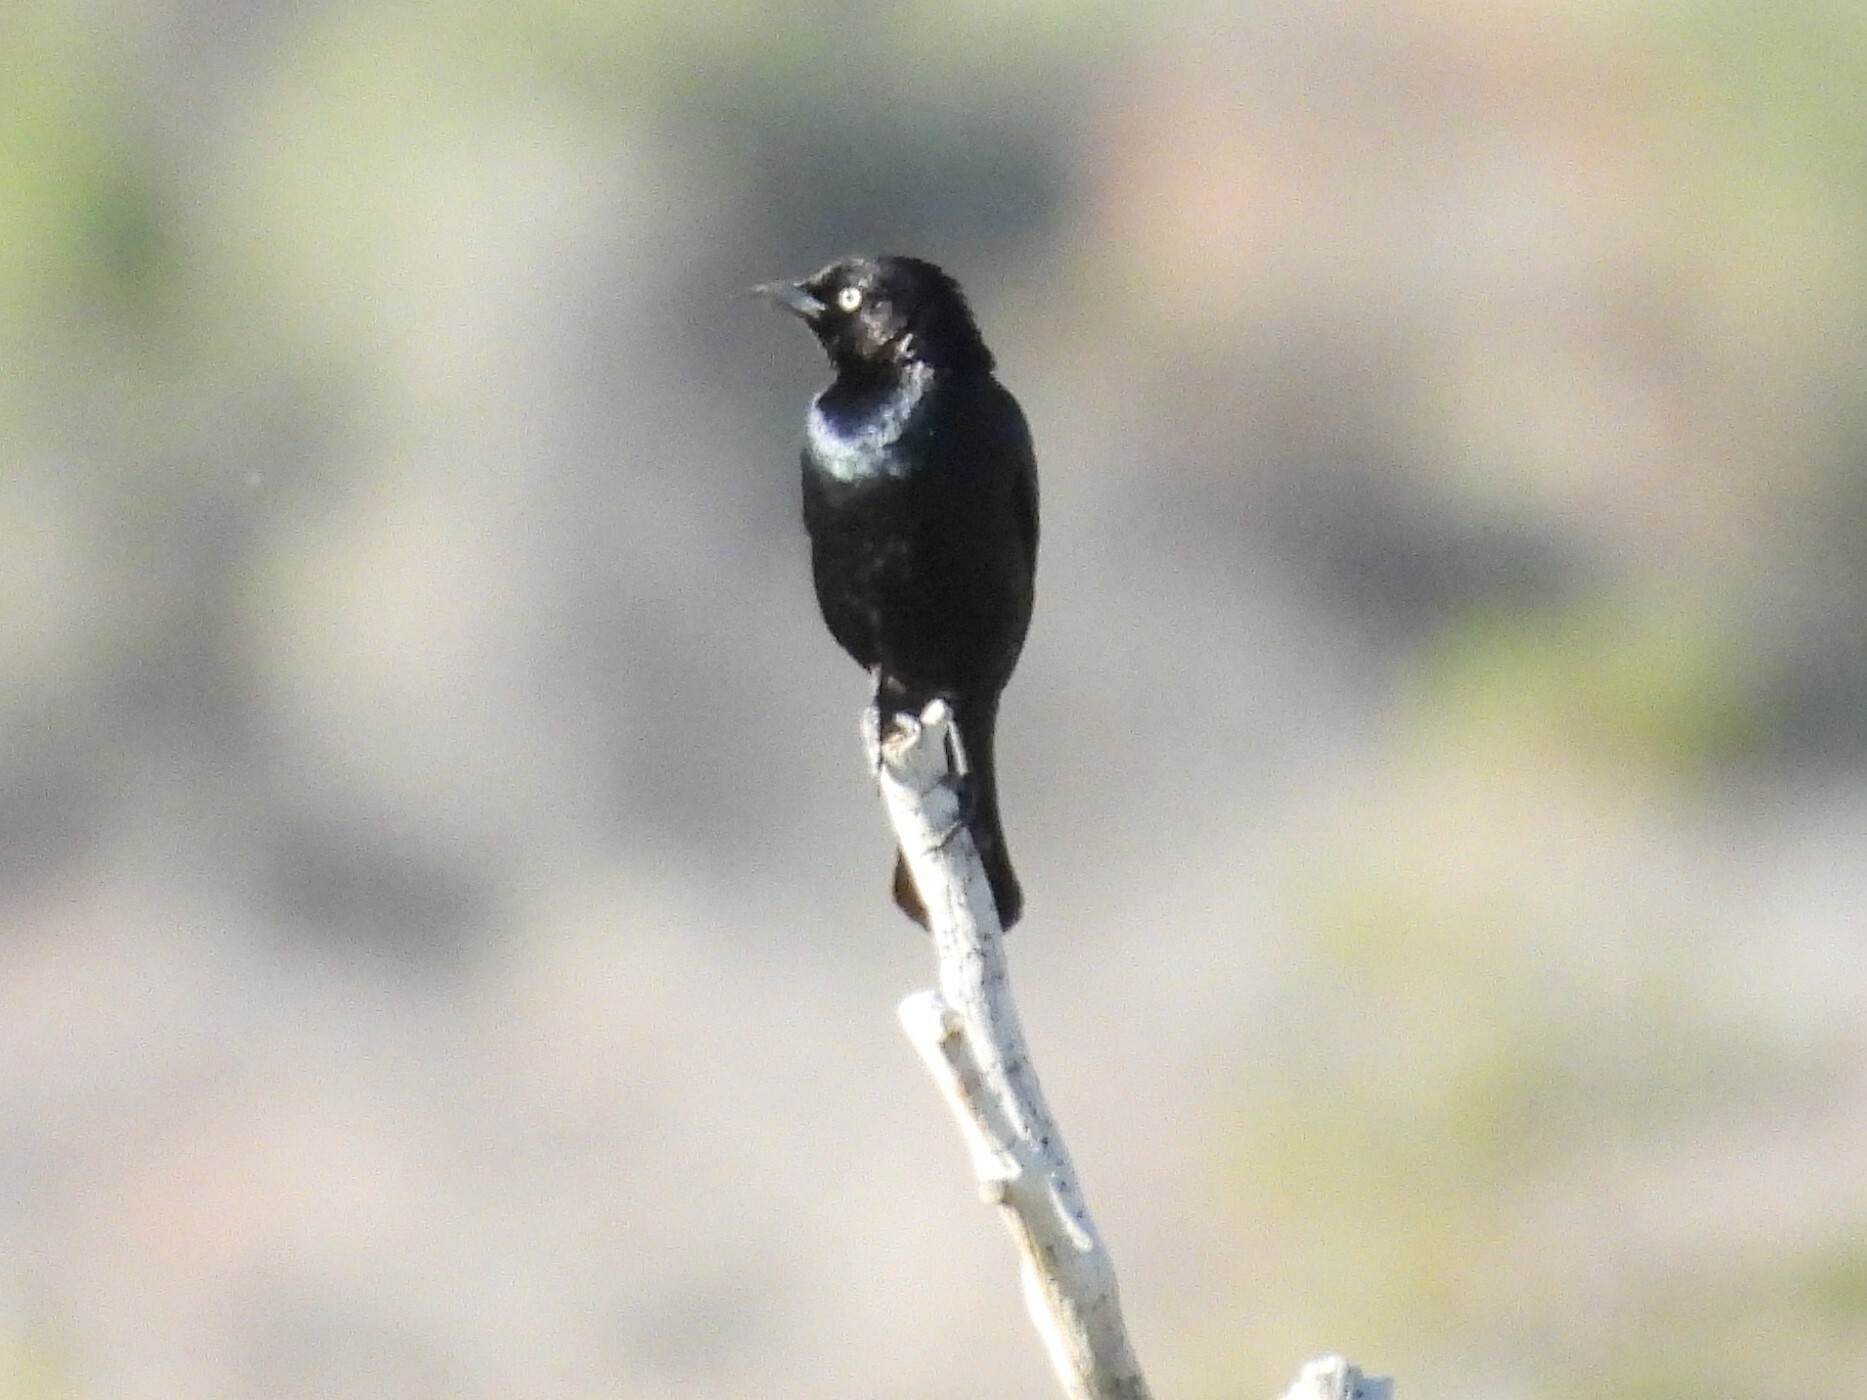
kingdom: Animalia
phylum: Chordata
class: Aves
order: Passeriformes
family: Icteridae
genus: Euphagus
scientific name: Euphagus cyanocephalus
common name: Brewer's blackbird
